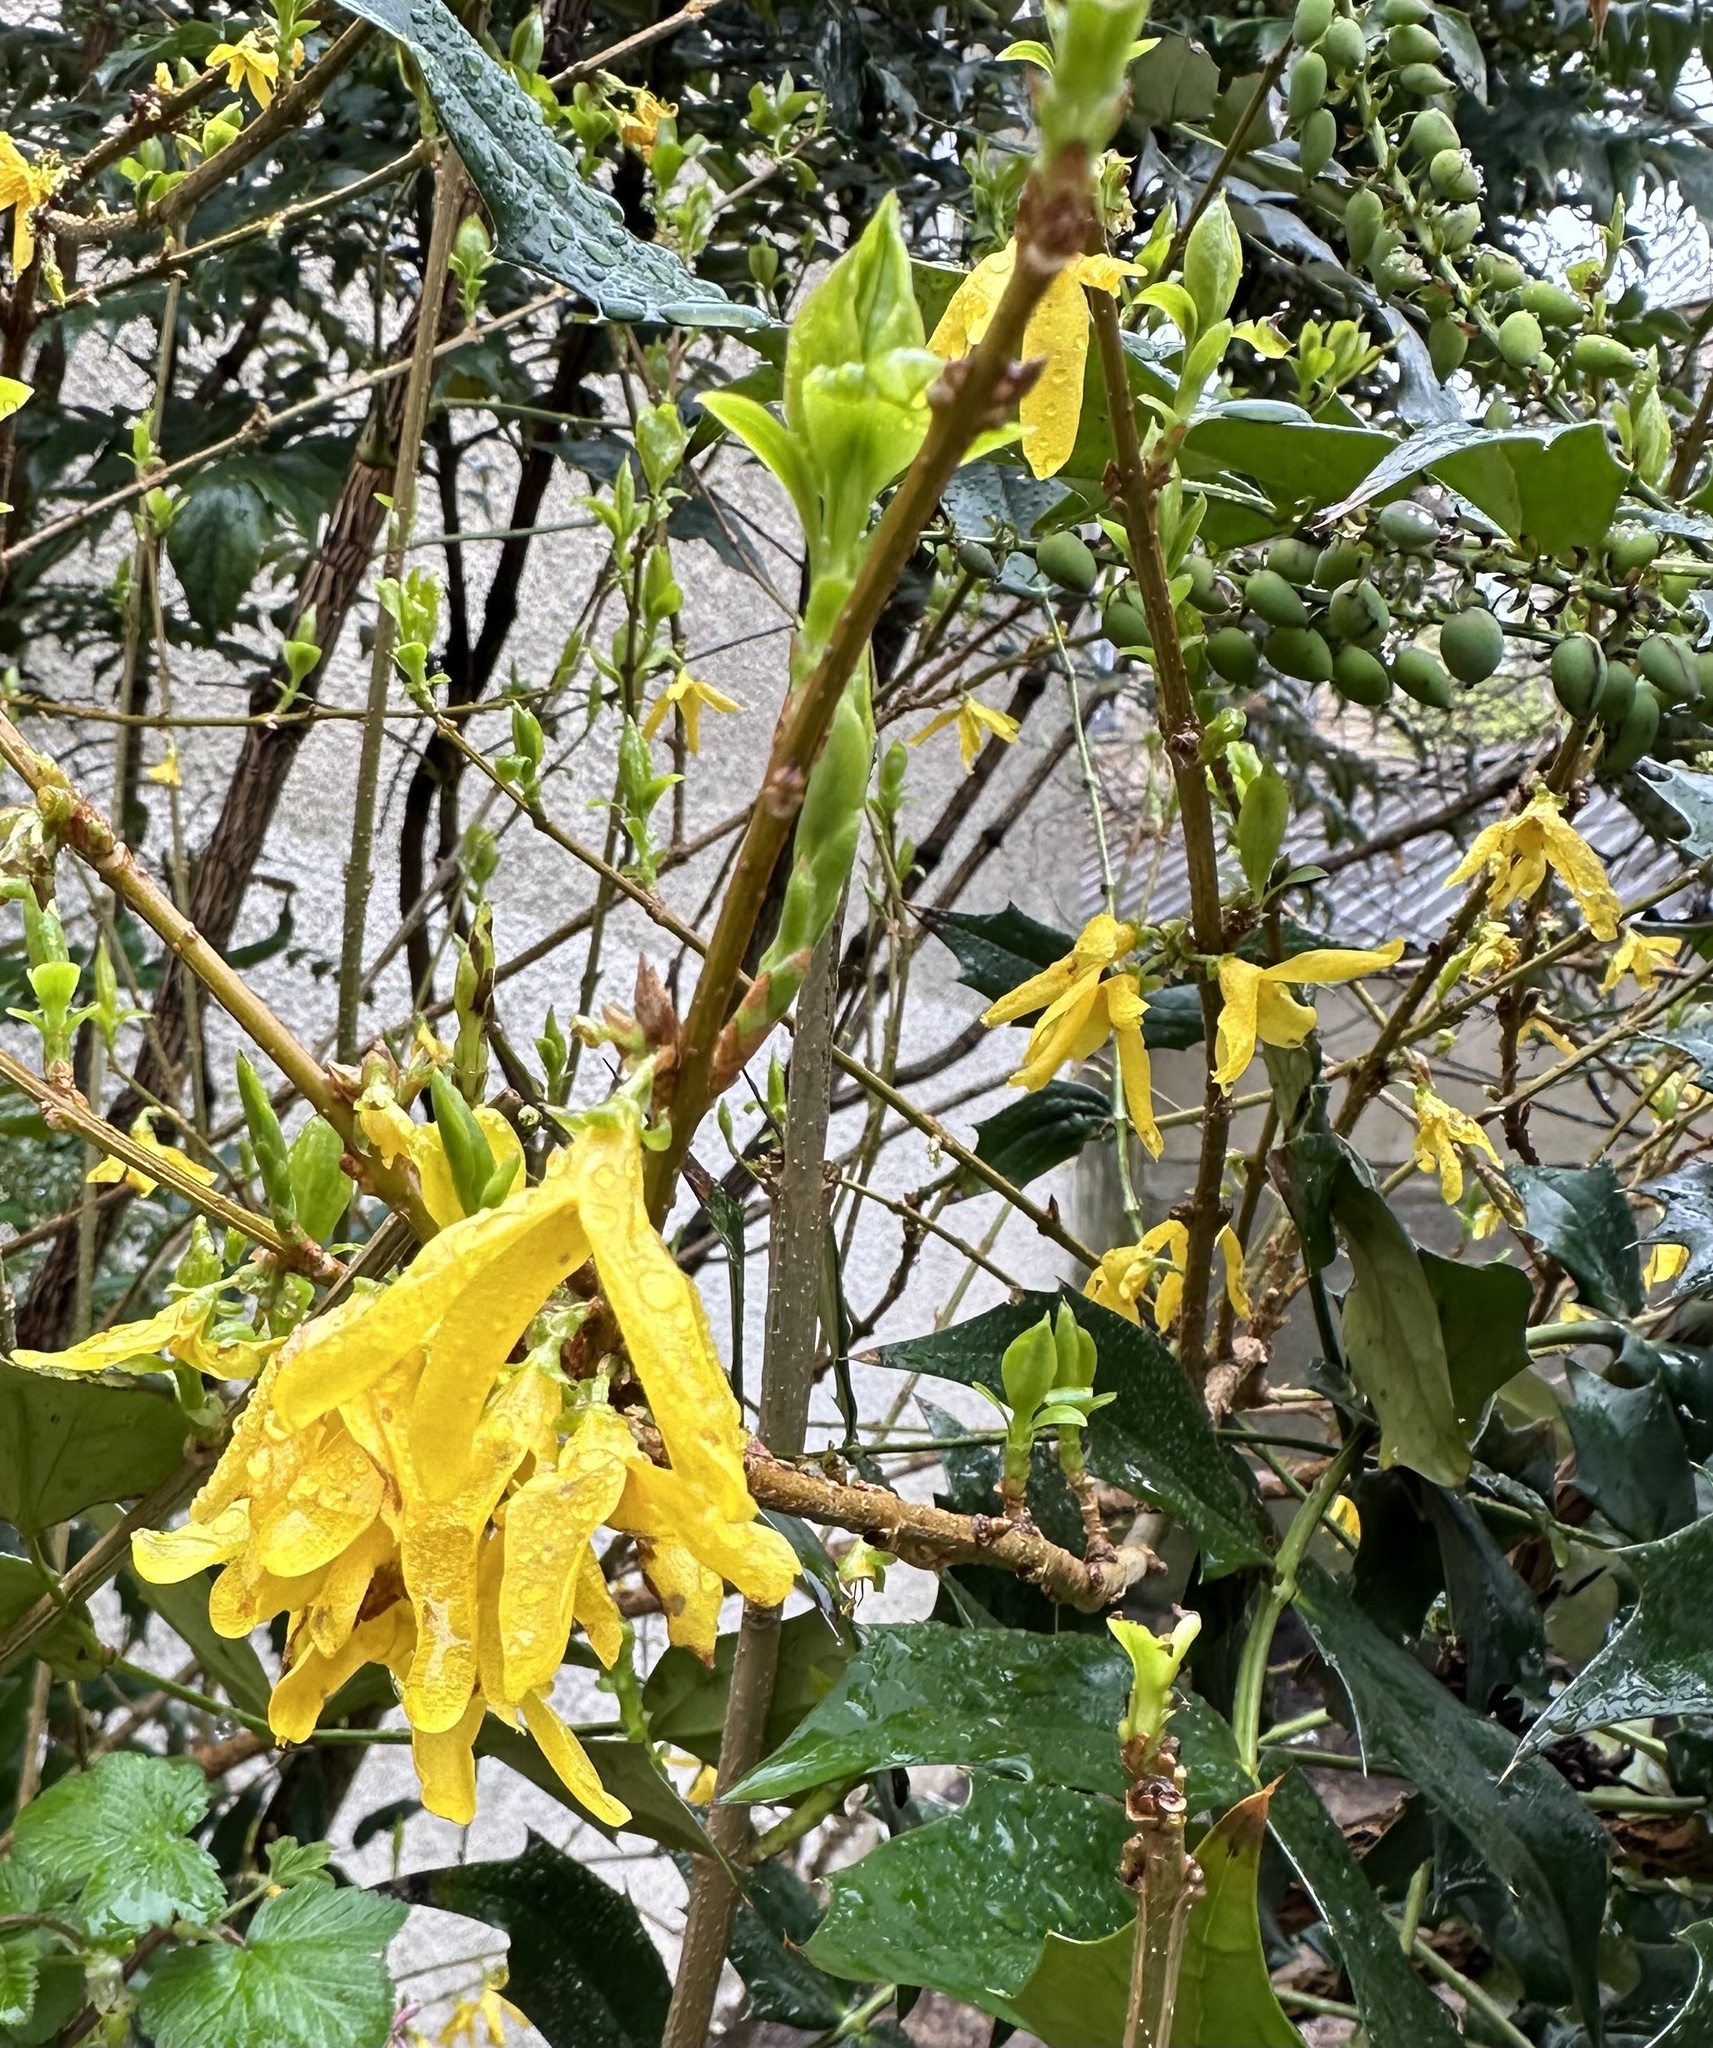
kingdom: Plantae
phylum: Tracheophyta
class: Magnoliopsida
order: Lamiales
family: Oleaceae
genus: Forsythia
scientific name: Forsythia intermedia
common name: Forsythia
